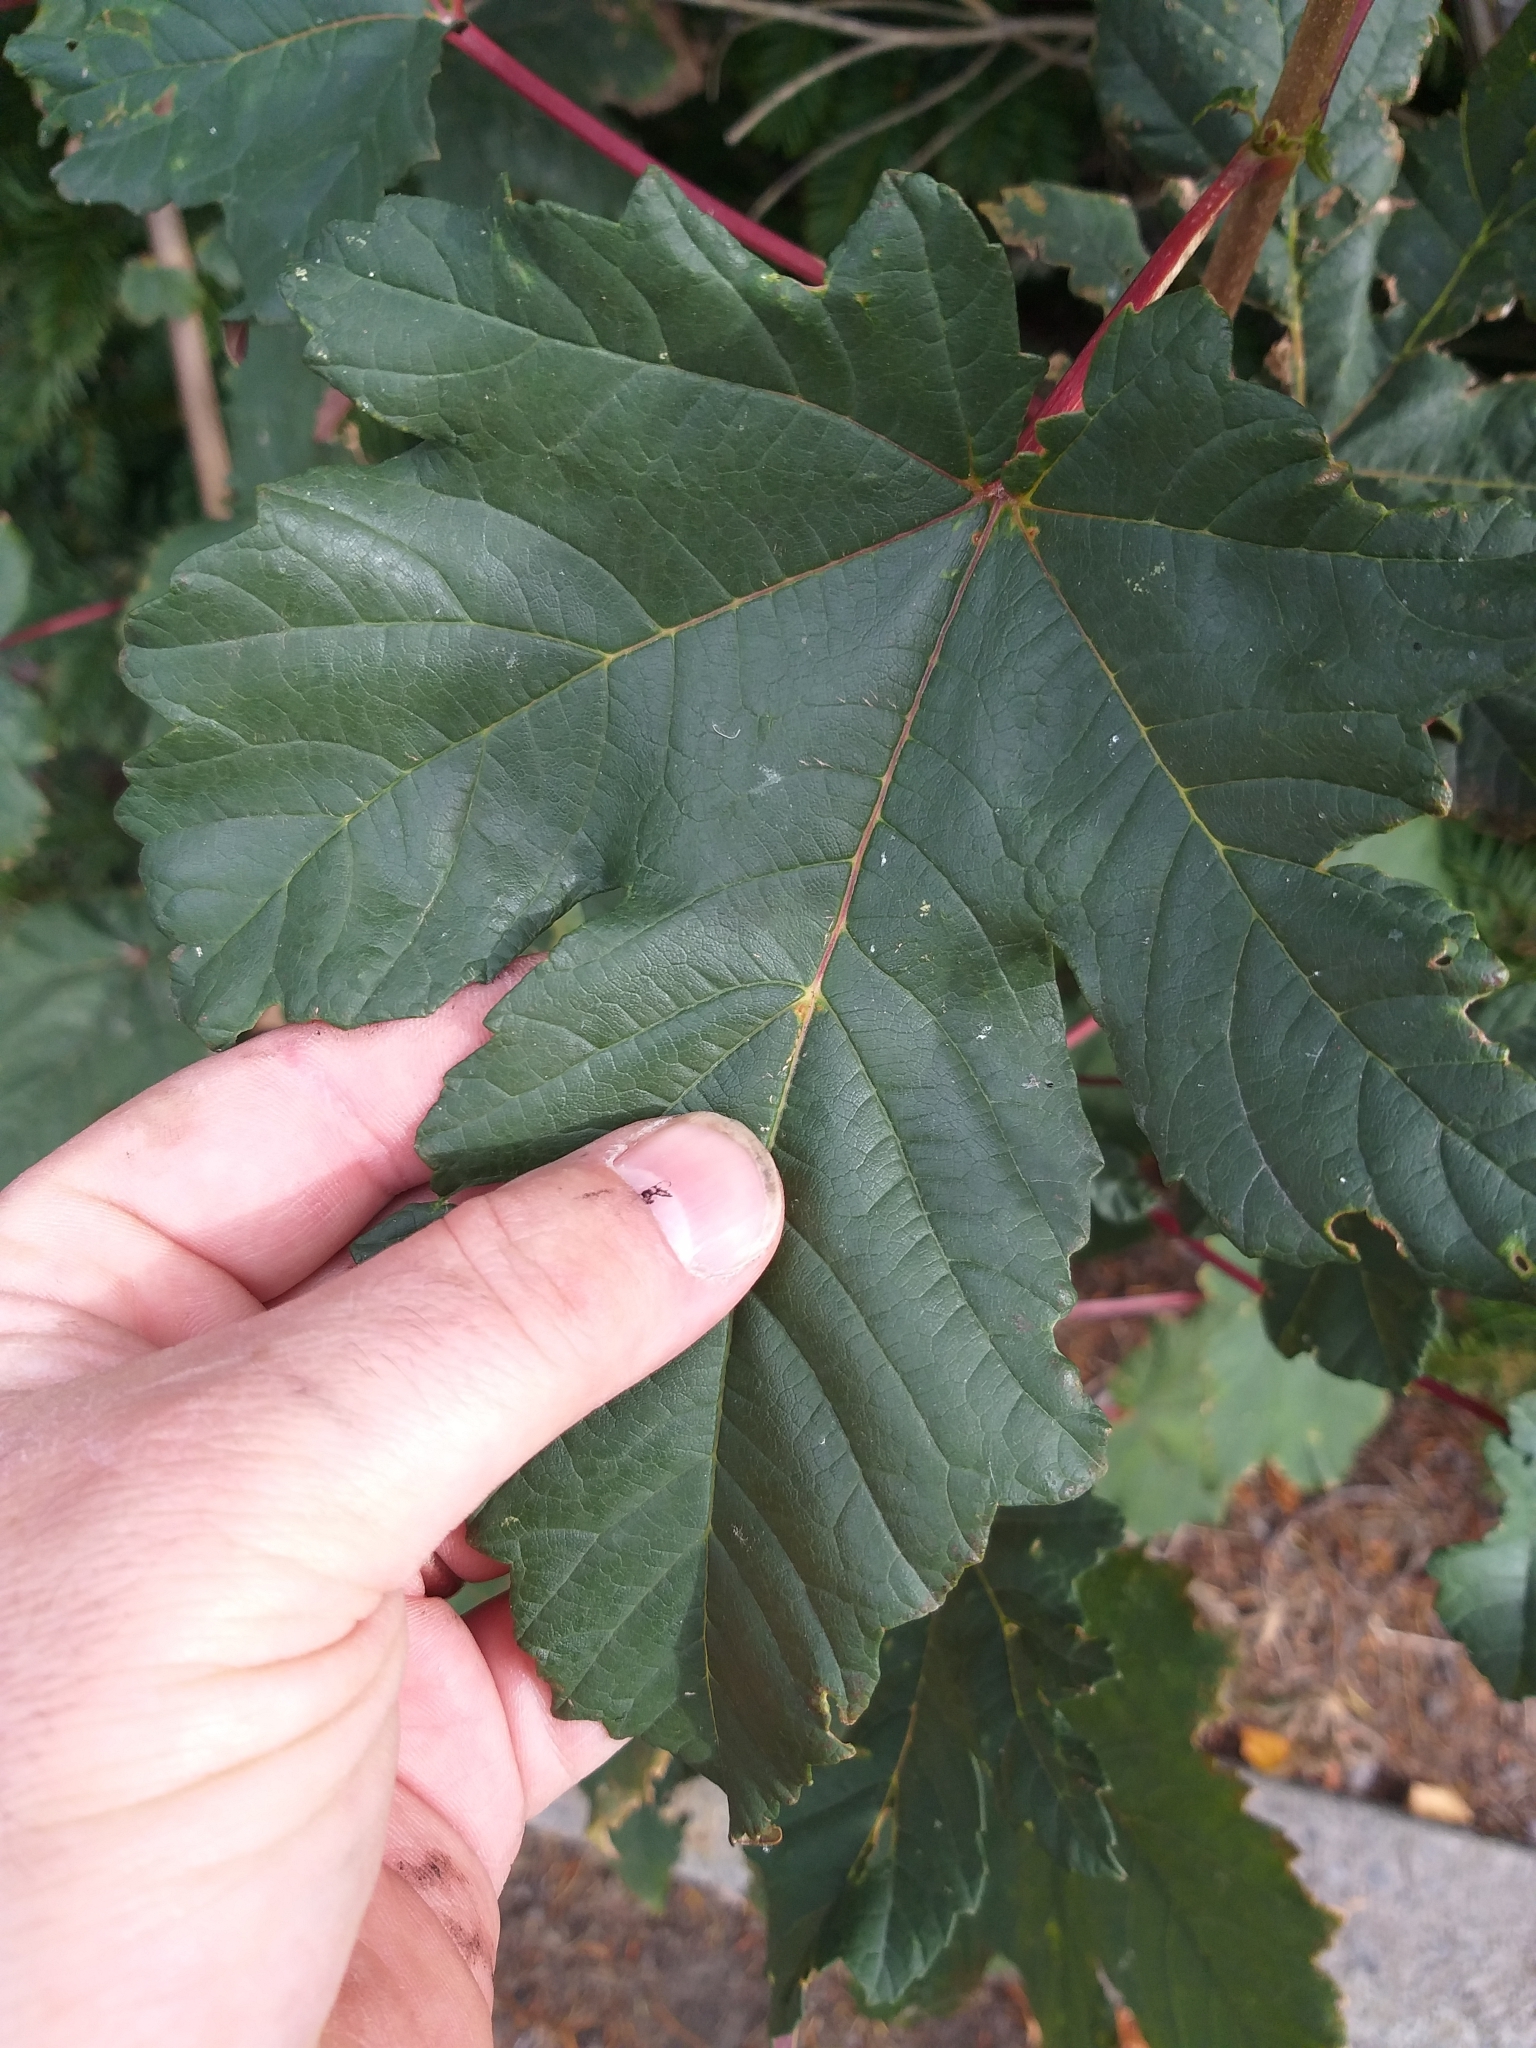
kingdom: Plantae
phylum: Tracheophyta
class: Magnoliopsida
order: Sapindales
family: Sapindaceae
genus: Acer
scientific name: Acer pseudoplatanus
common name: Sycamore
